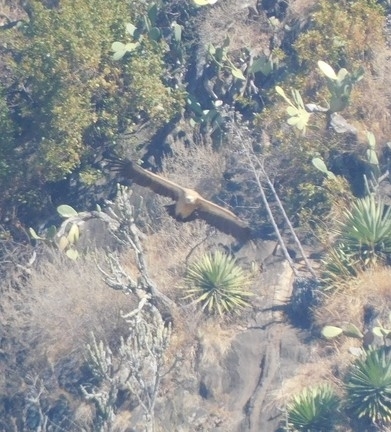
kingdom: Animalia
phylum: Chordata
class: Aves
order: Accipitriformes
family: Accipitridae
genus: Gyps
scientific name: Gyps himalayensis
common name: Himalayan griffon
